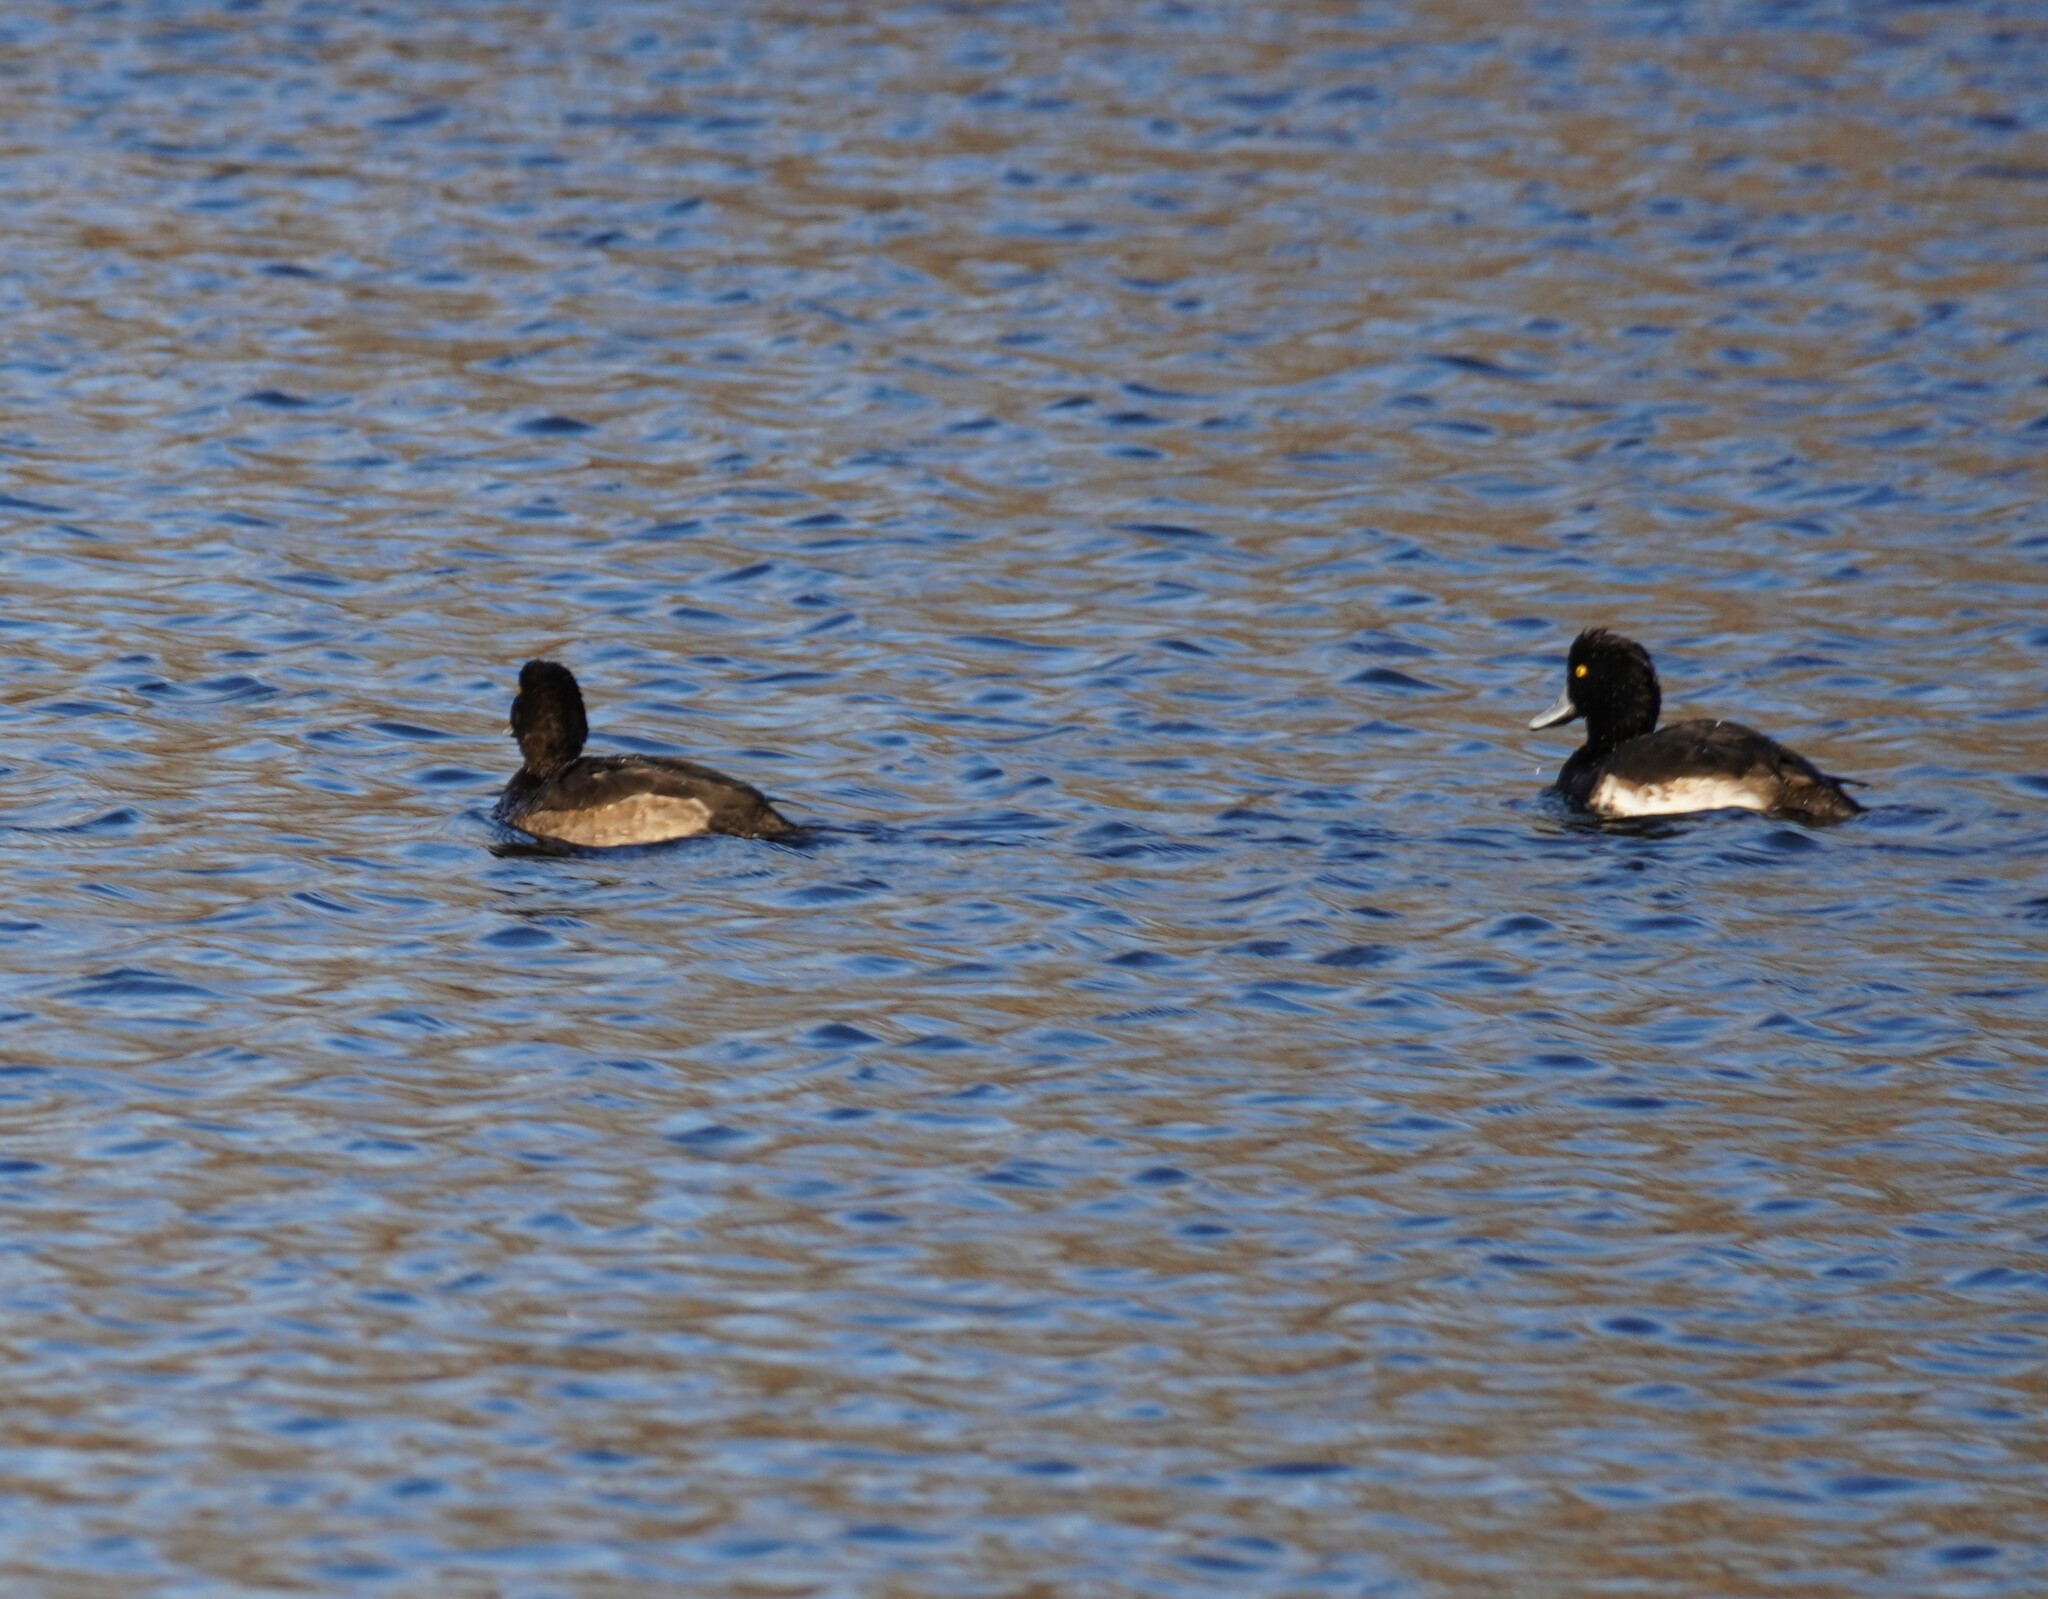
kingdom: Animalia
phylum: Chordata
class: Aves
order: Anseriformes
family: Anatidae
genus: Aythya
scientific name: Aythya fuligula
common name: Tufted duck
